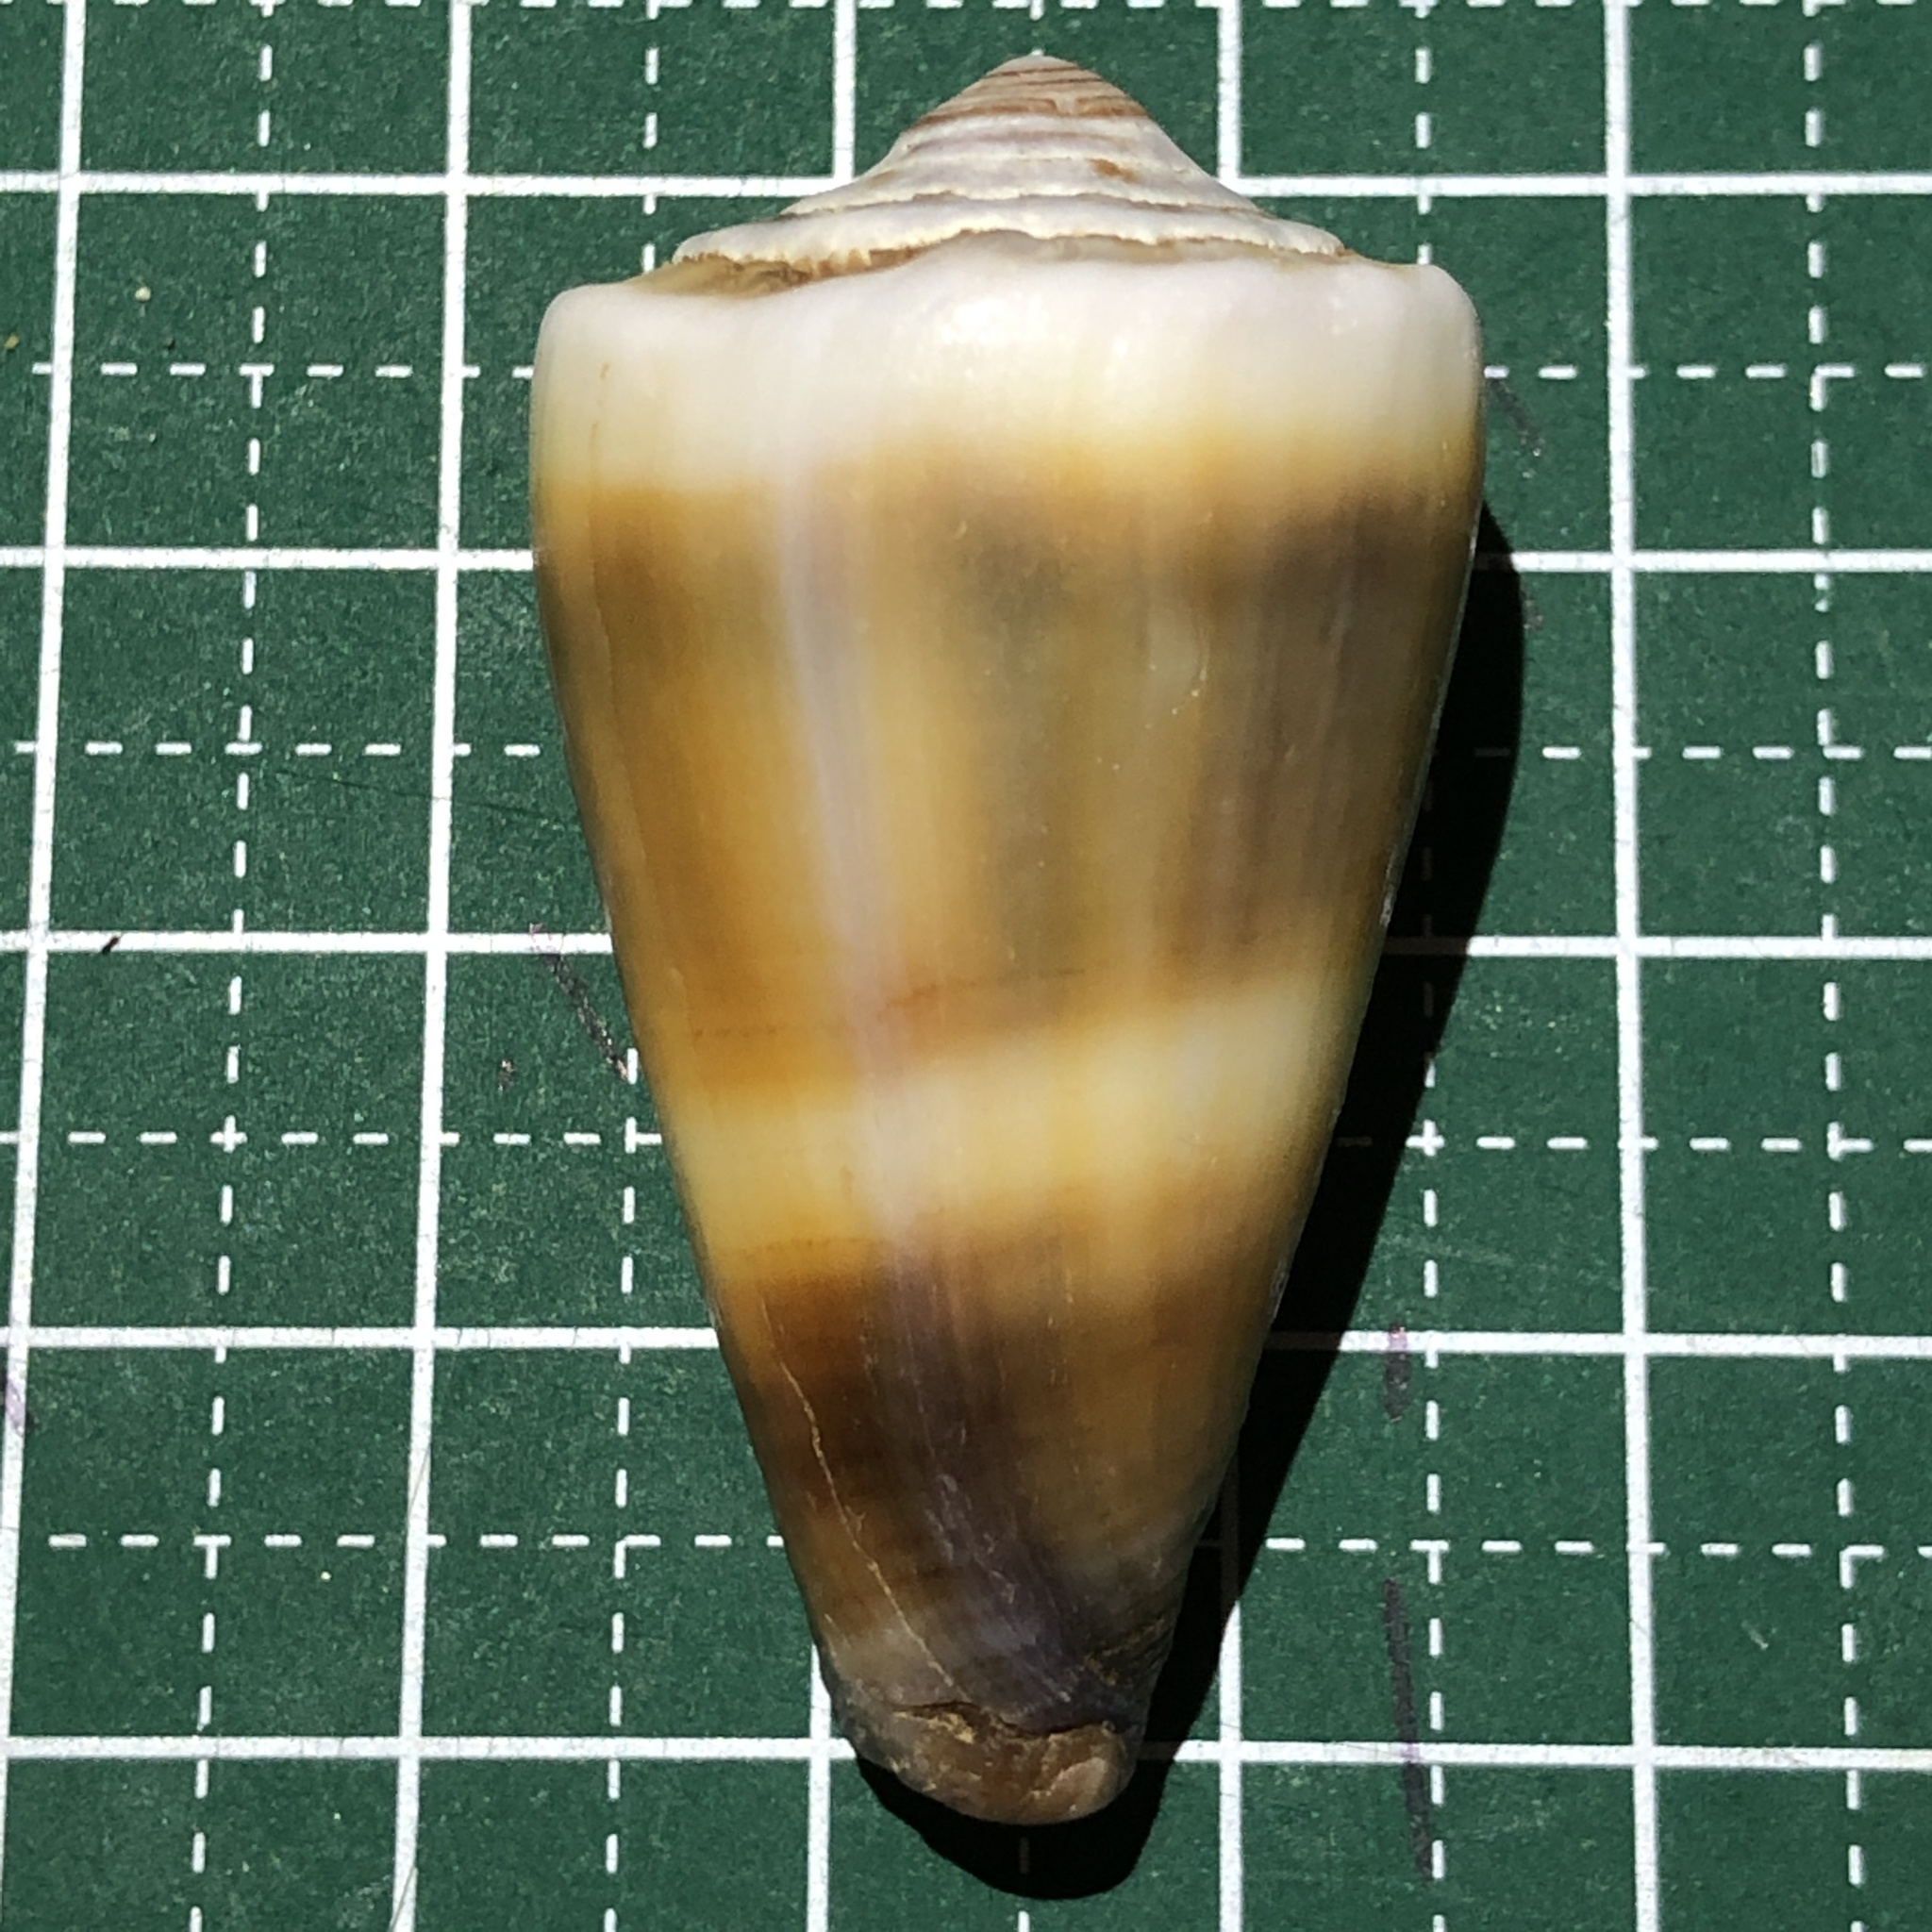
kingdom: Animalia
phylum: Mollusca
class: Gastropoda
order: Neogastropoda
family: Conidae
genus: Conus
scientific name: Conus flavidus
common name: Golden-yellow cone
